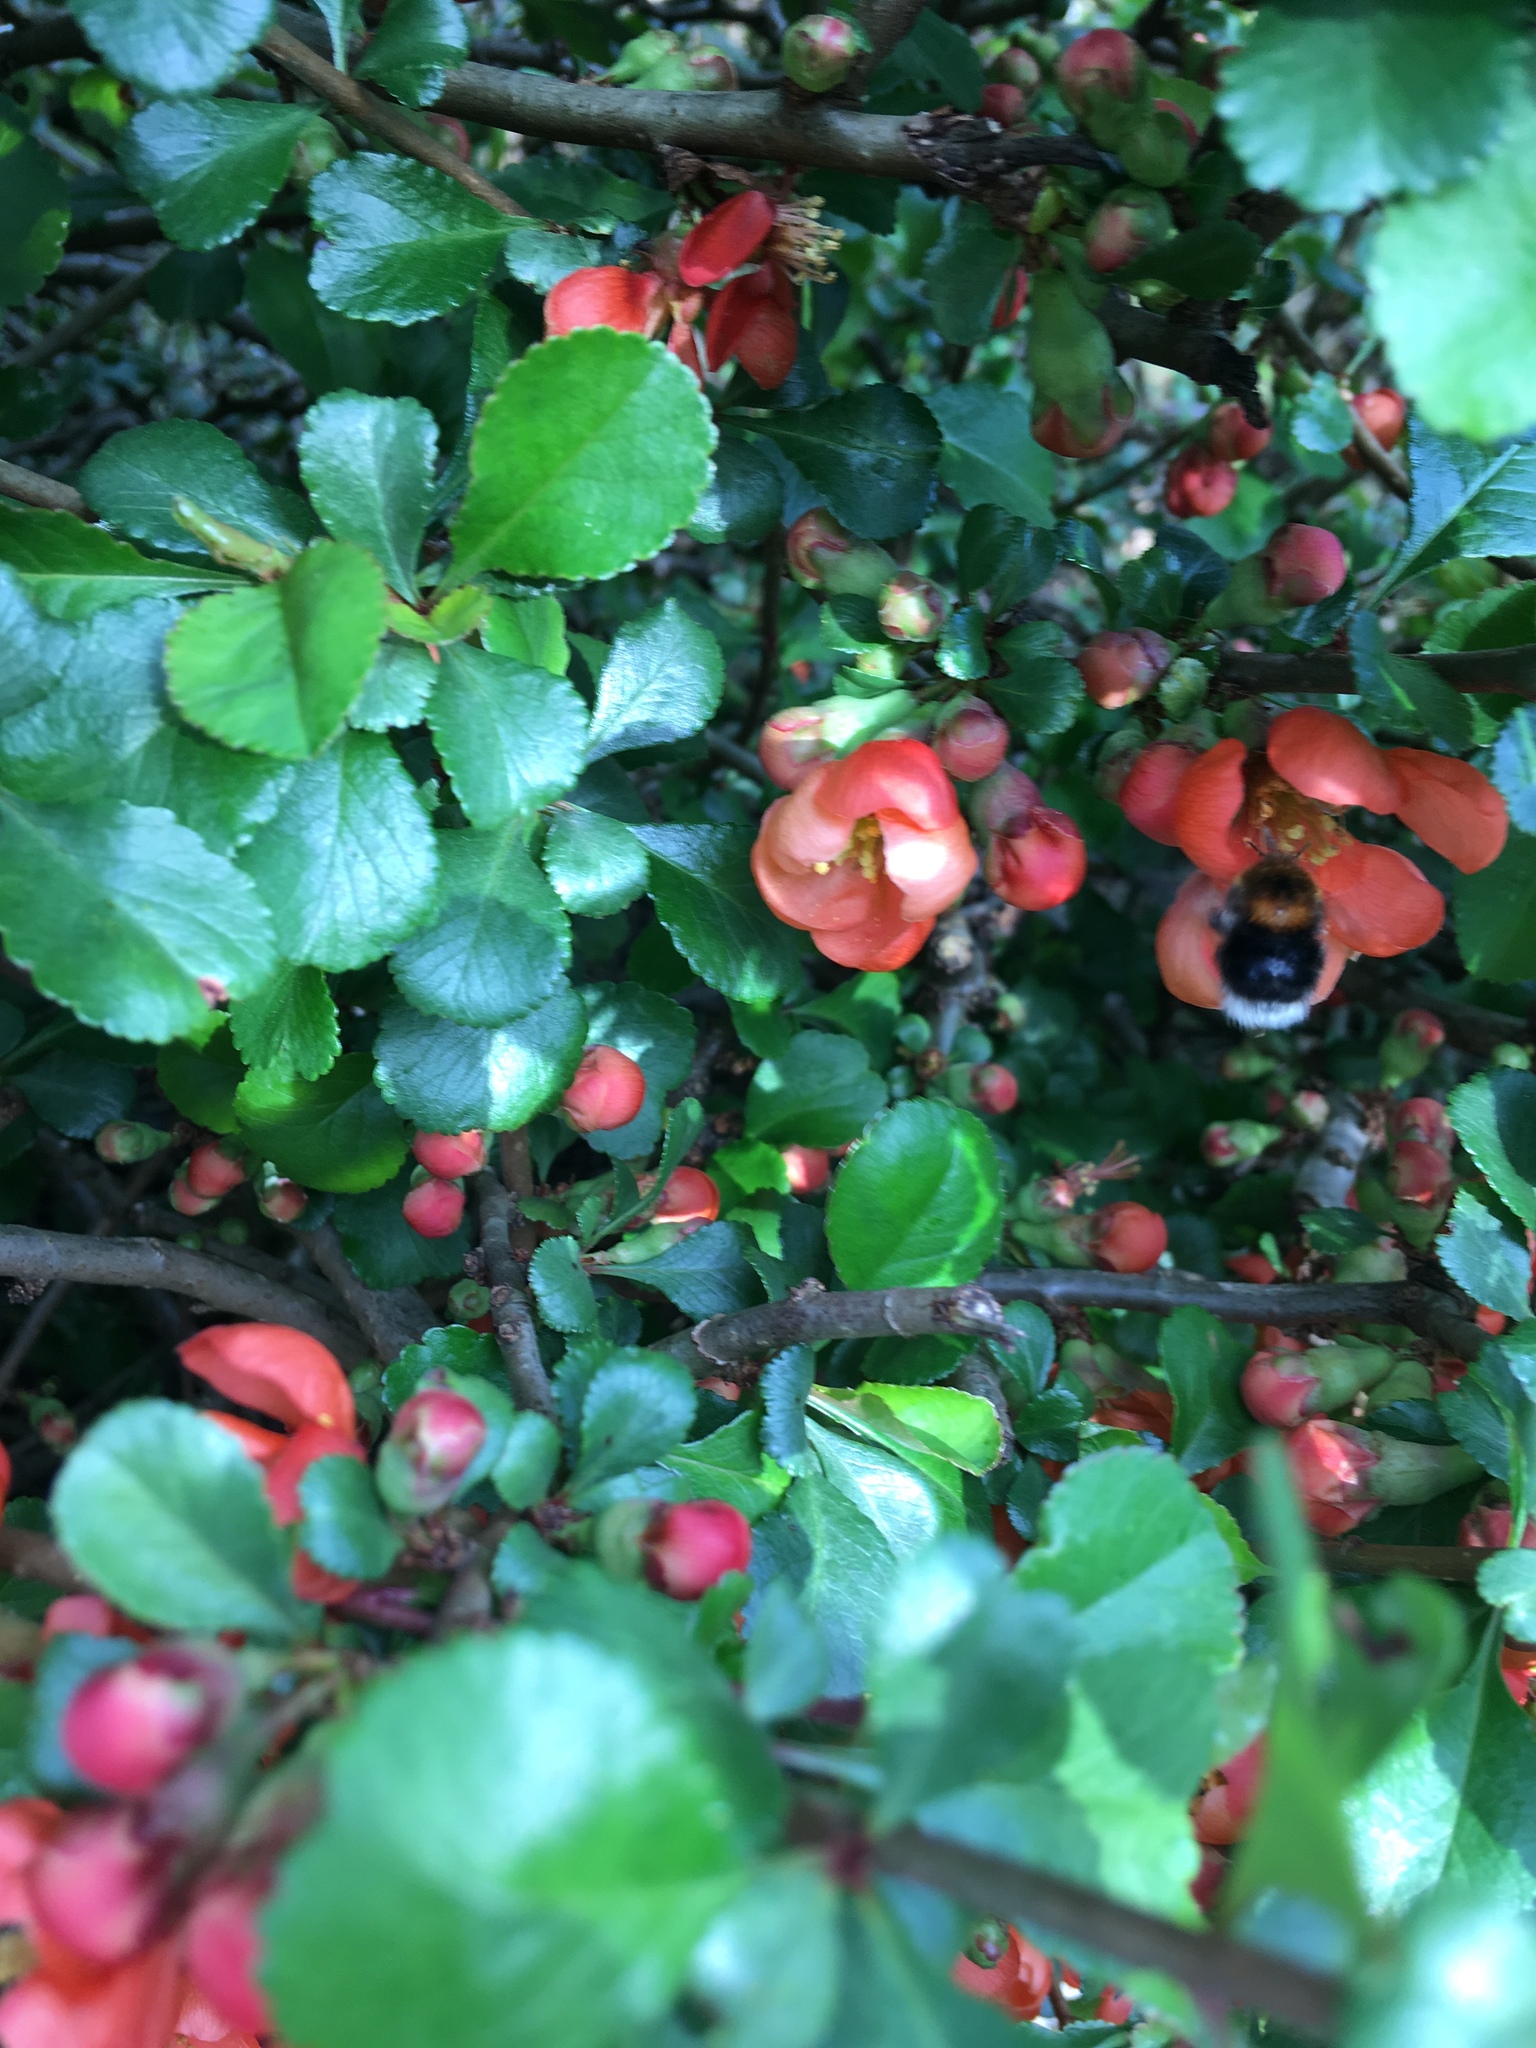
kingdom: Animalia
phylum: Arthropoda
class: Insecta
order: Hymenoptera
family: Apidae
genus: Bombus
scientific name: Bombus hypnorum
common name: New garden bumblebee
